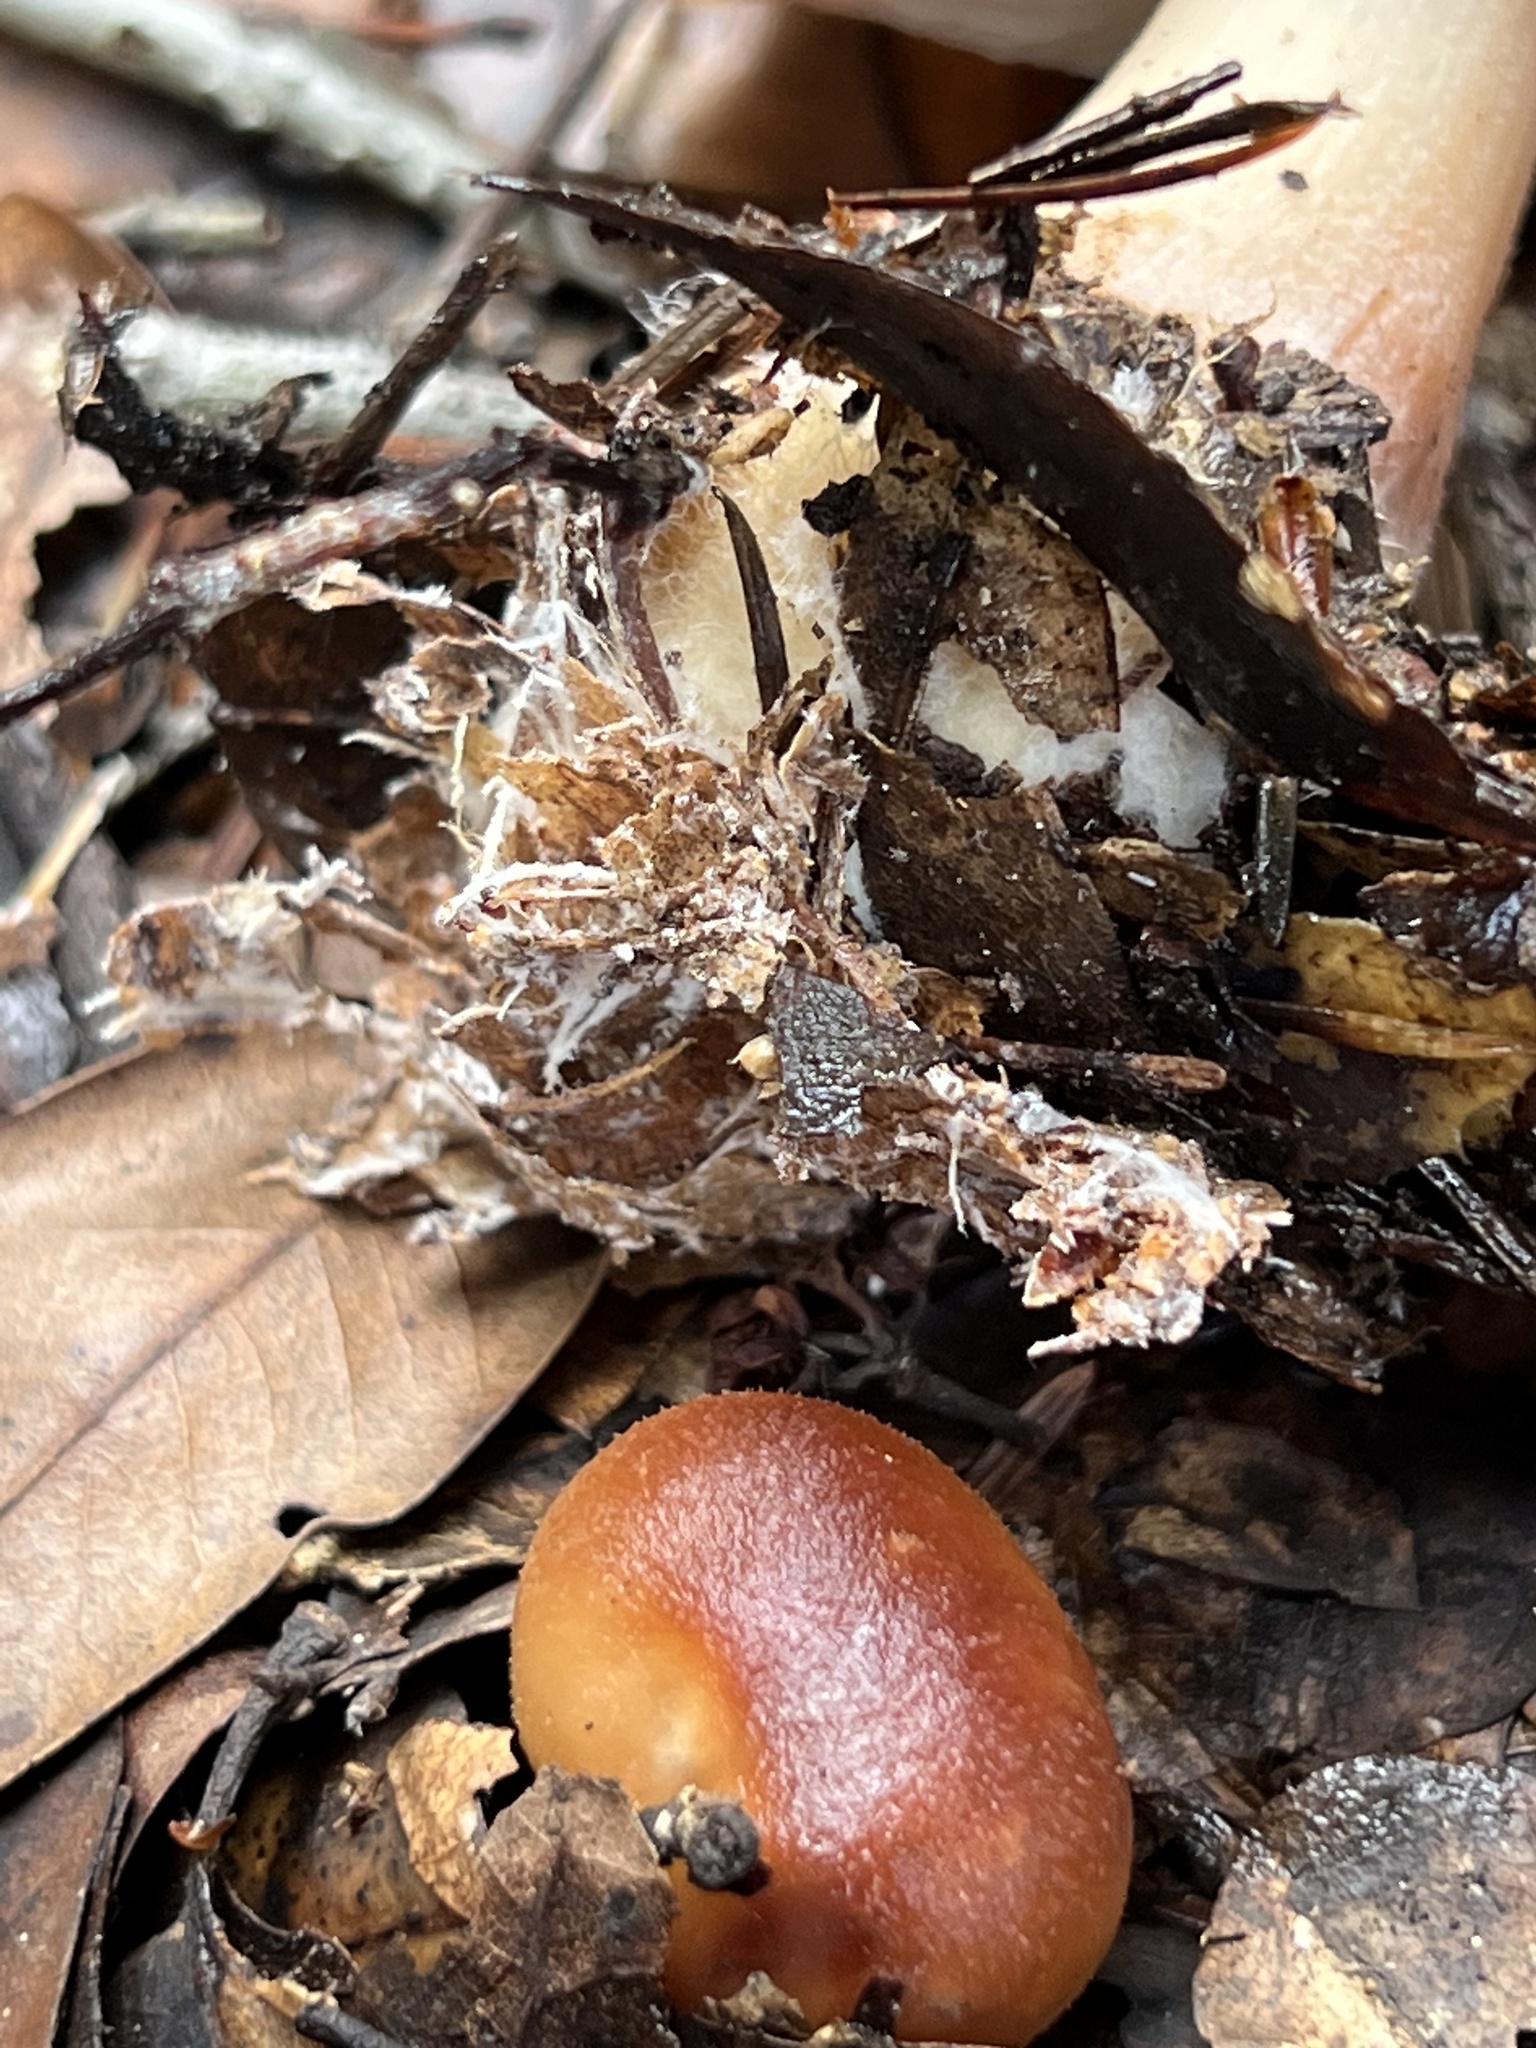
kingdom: Fungi
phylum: Basidiomycota
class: Agaricomycetes
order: Agaricales
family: Omphalotaceae
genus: Rhodocollybia
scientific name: Rhodocollybia butyracea
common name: Butter cap
